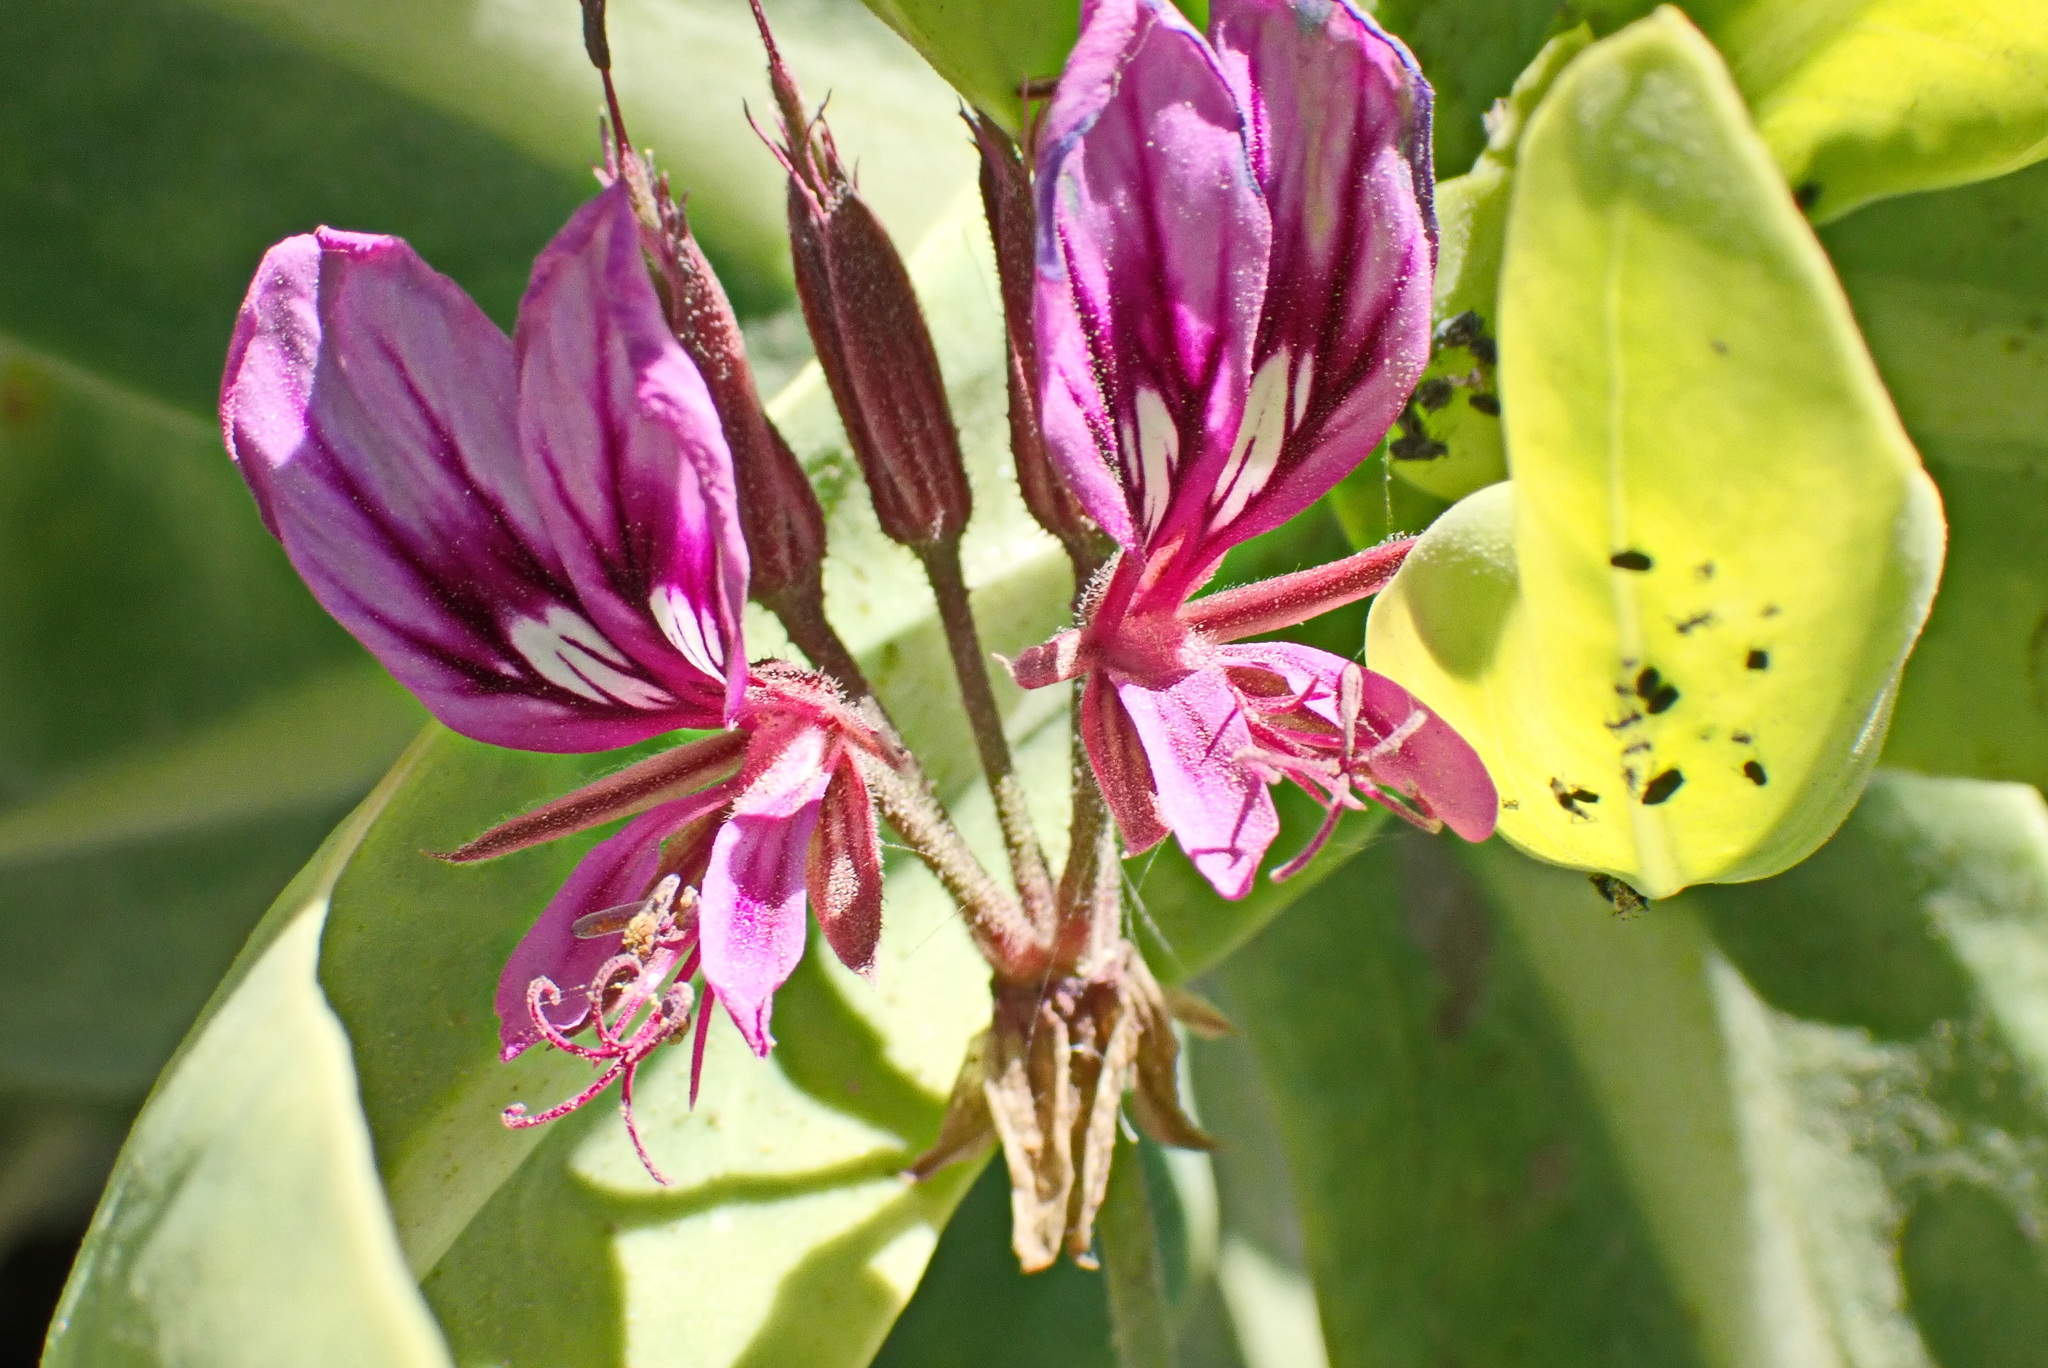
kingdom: Plantae
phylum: Tracheophyta
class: Magnoliopsida
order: Geraniales
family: Geraniaceae
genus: Pelargonium
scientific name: Pelargonium multicaule
